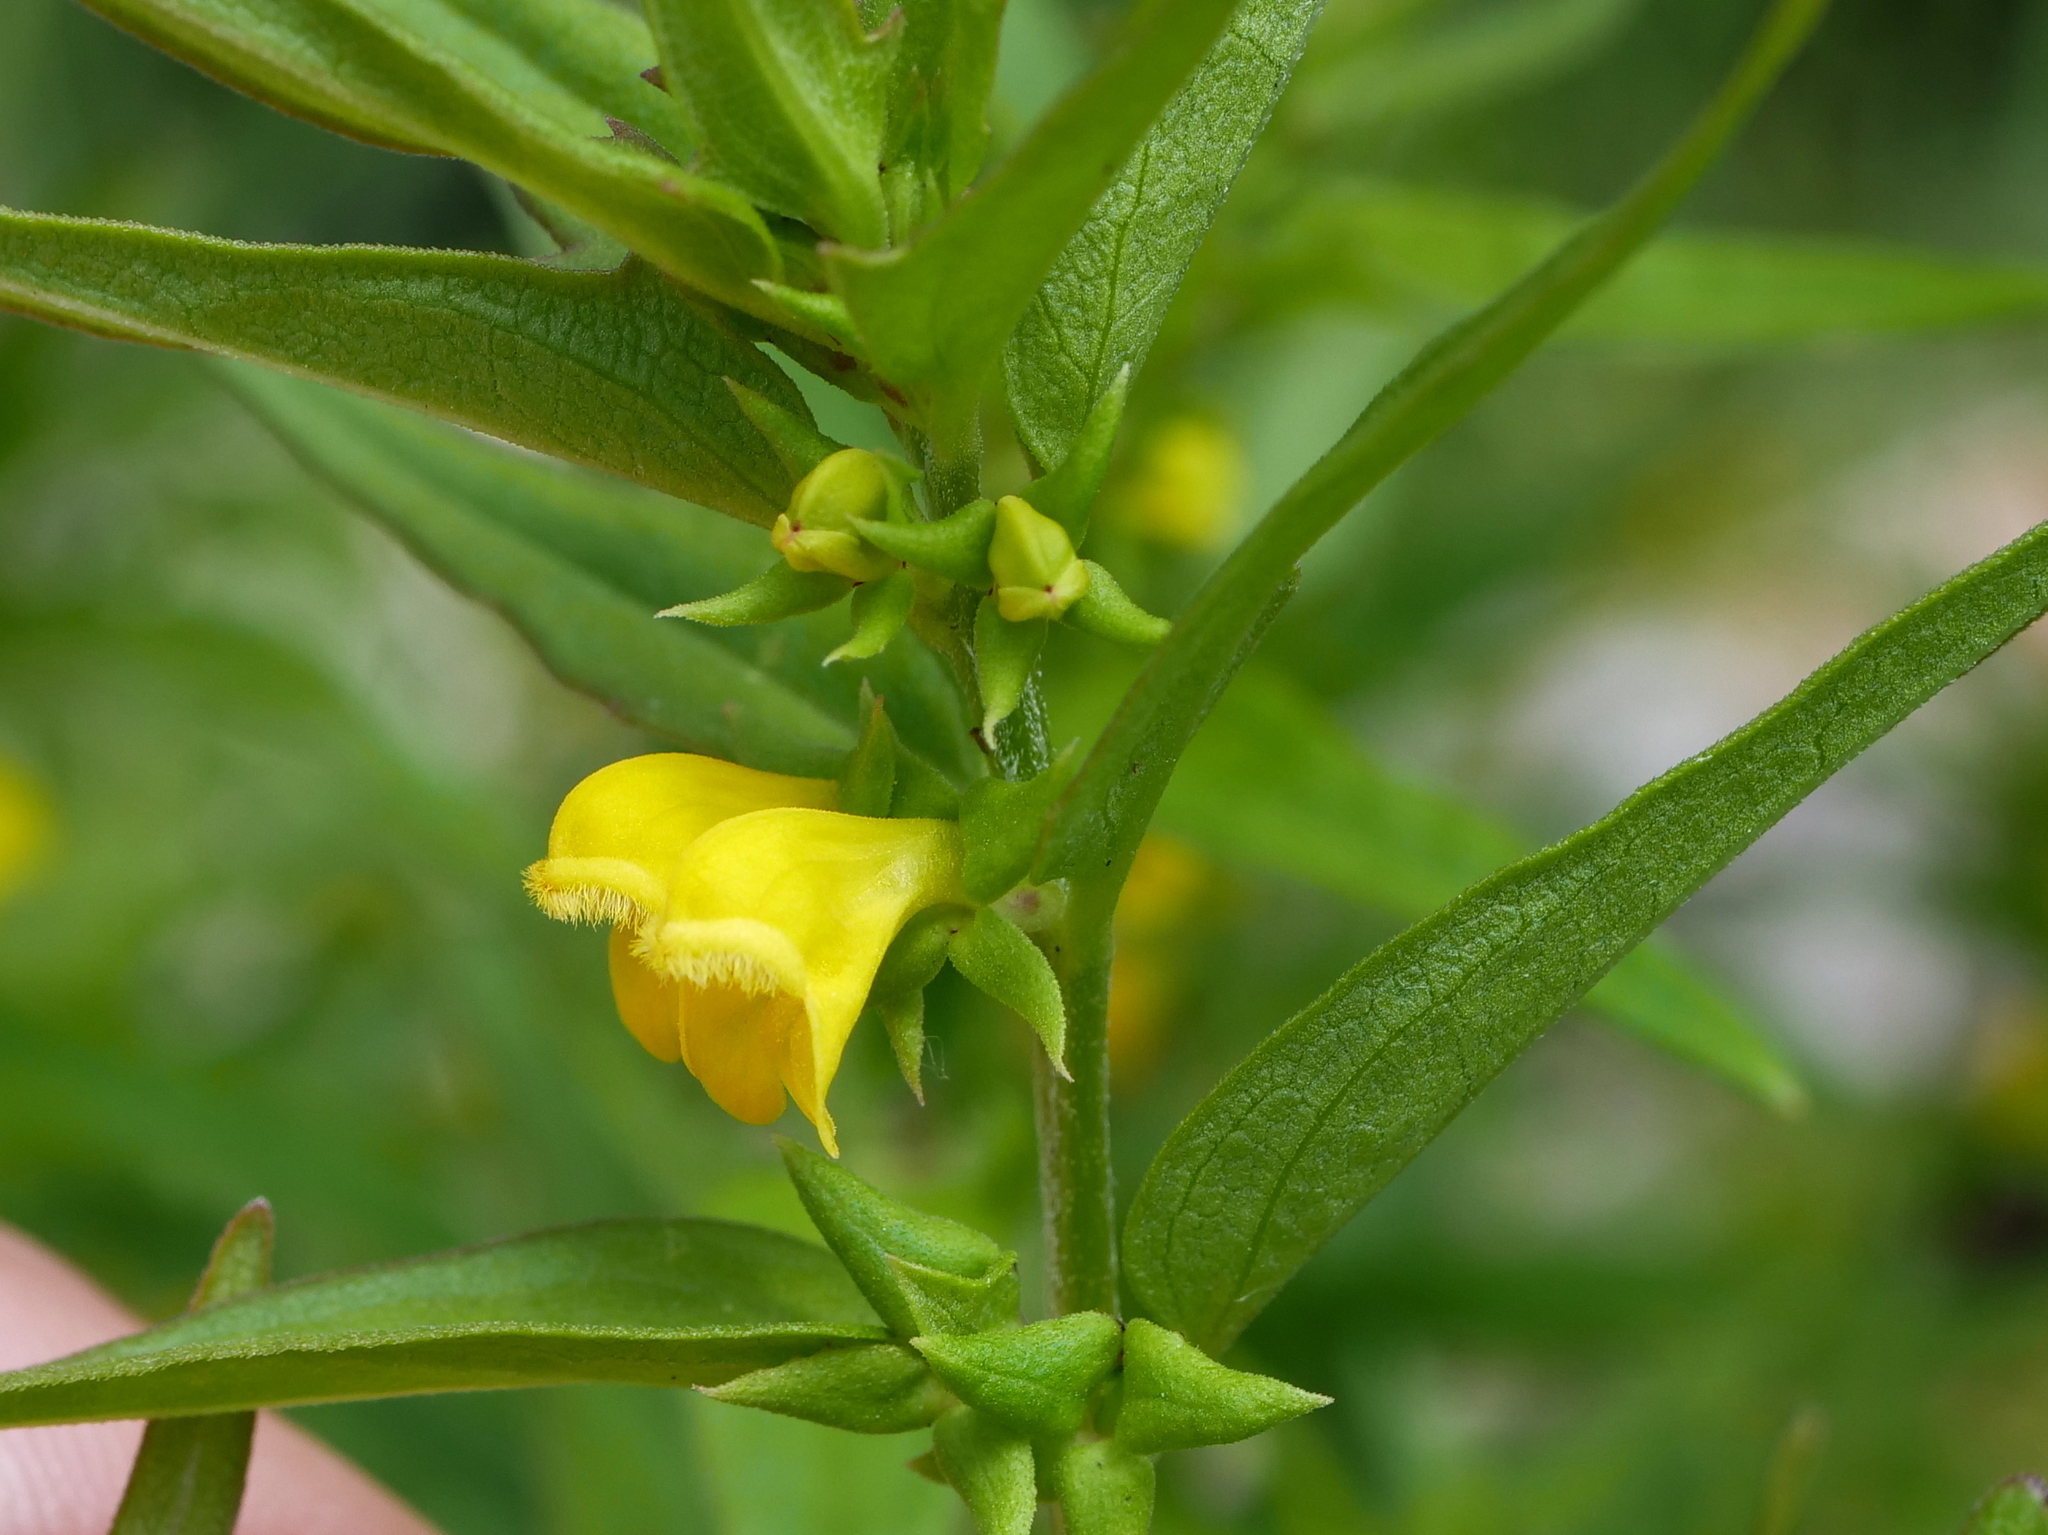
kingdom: Plantae
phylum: Tracheophyta
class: Magnoliopsida
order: Lamiales
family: Orobanchaceae
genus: Melampyrum
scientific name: Melampyrum sylvaticum
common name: Small cow-wheat
